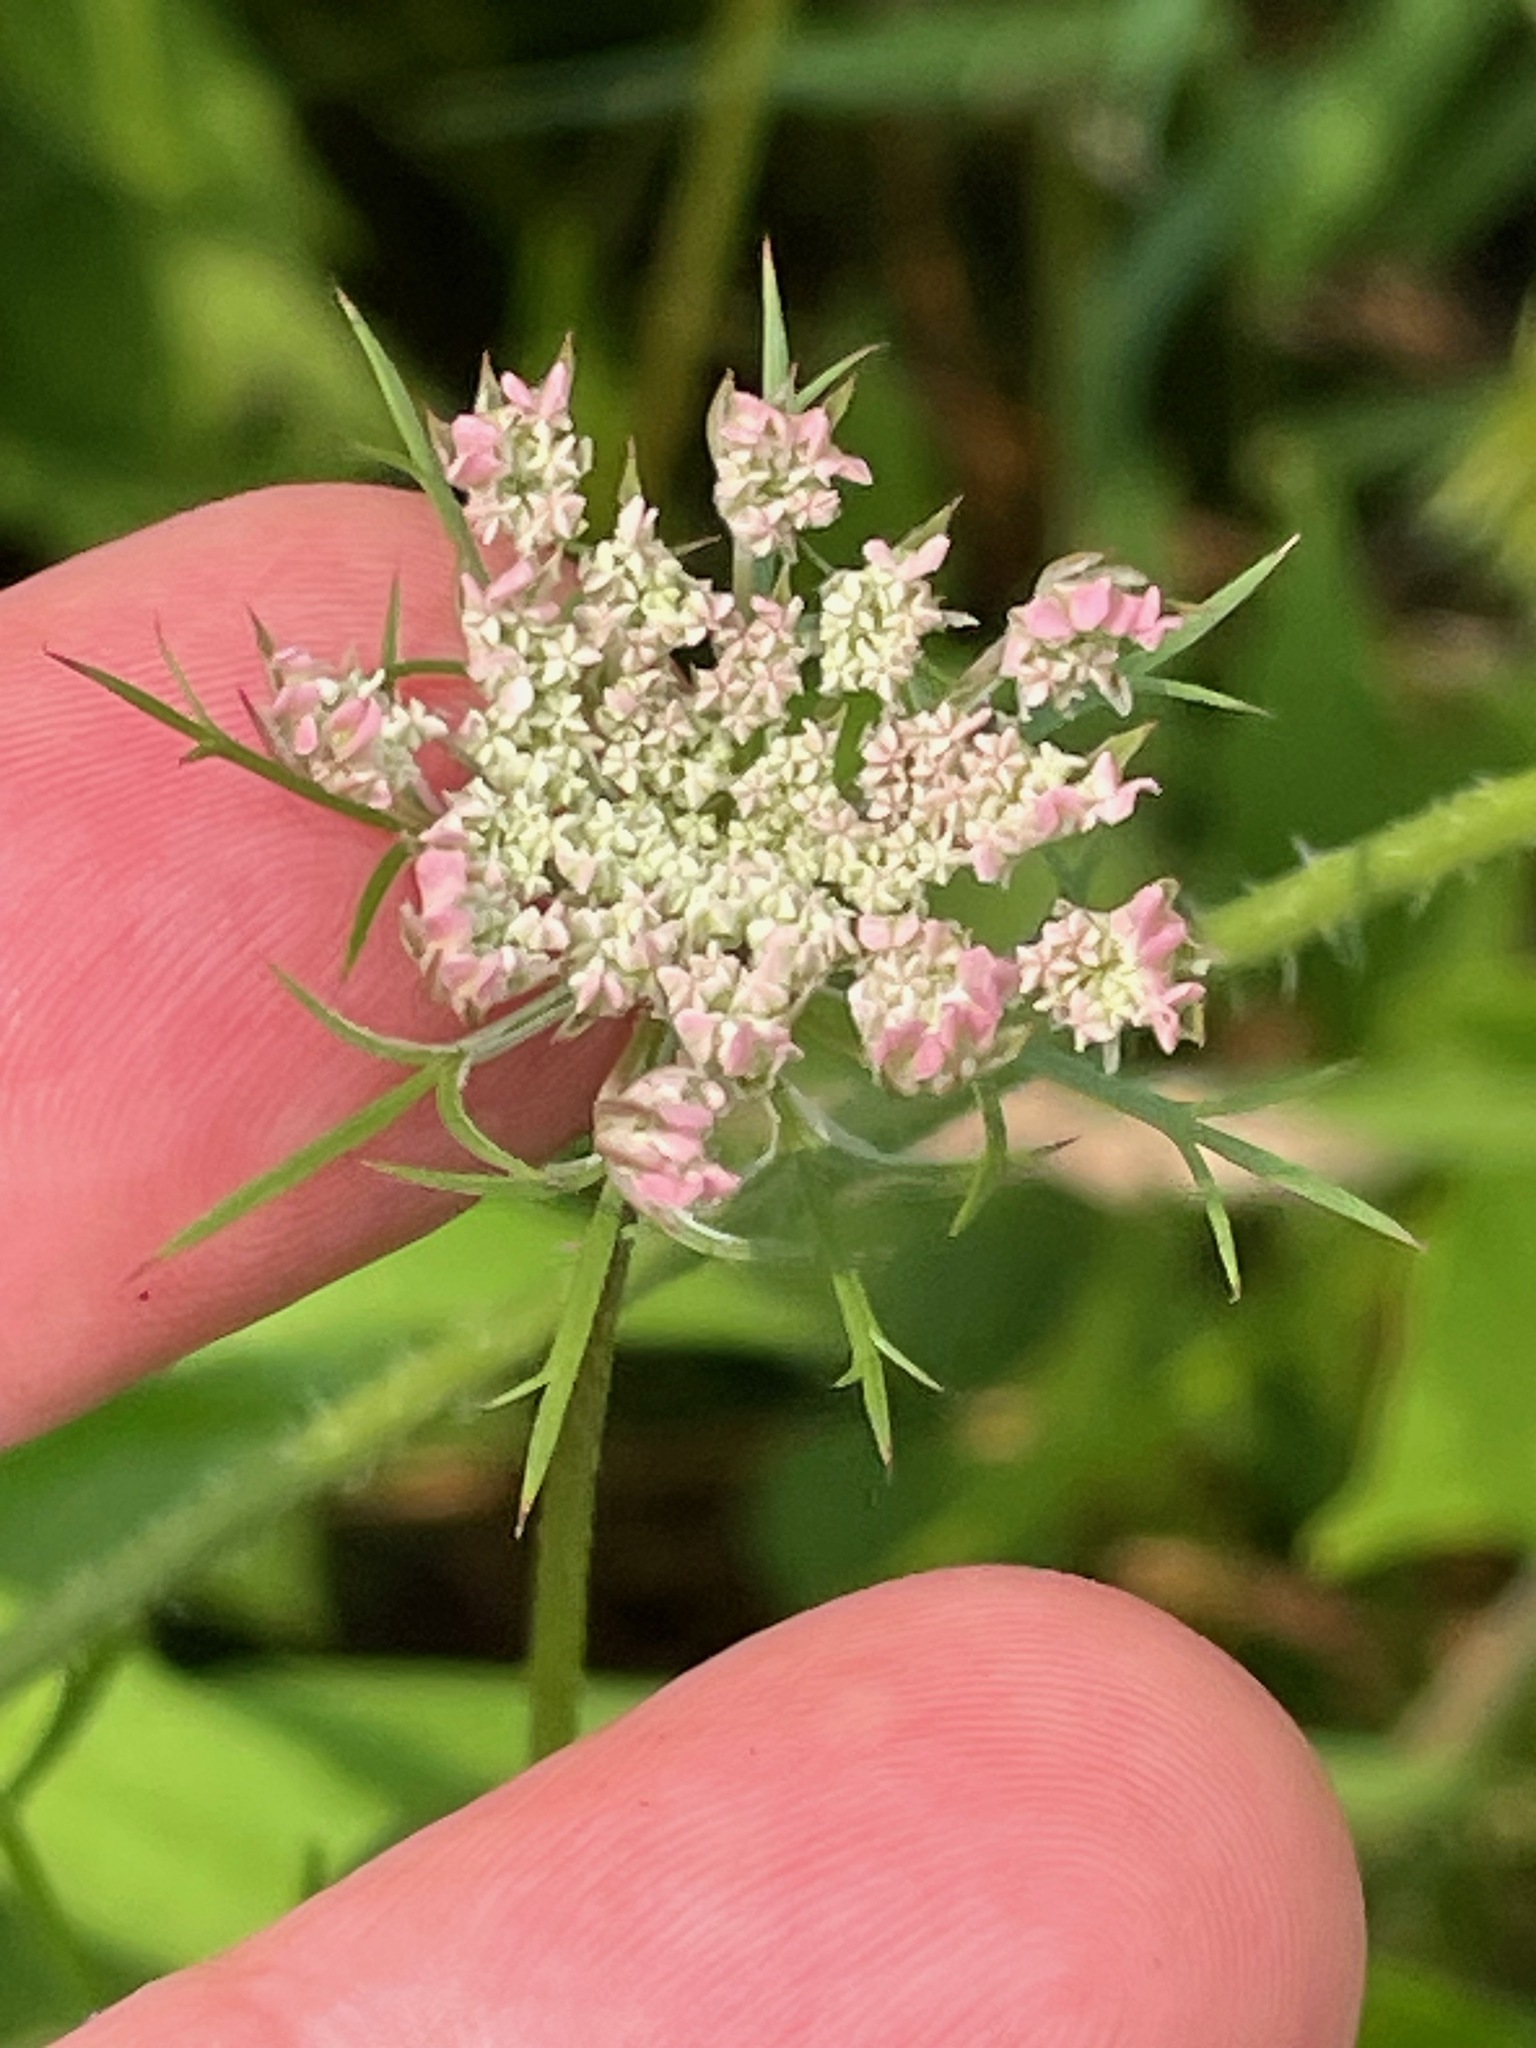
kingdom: Plantae
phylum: Tracheophyta
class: Magnoliopsida
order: Apiales
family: Apiaceae
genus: Daucus
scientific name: Daucus carota
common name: Wild carrot
